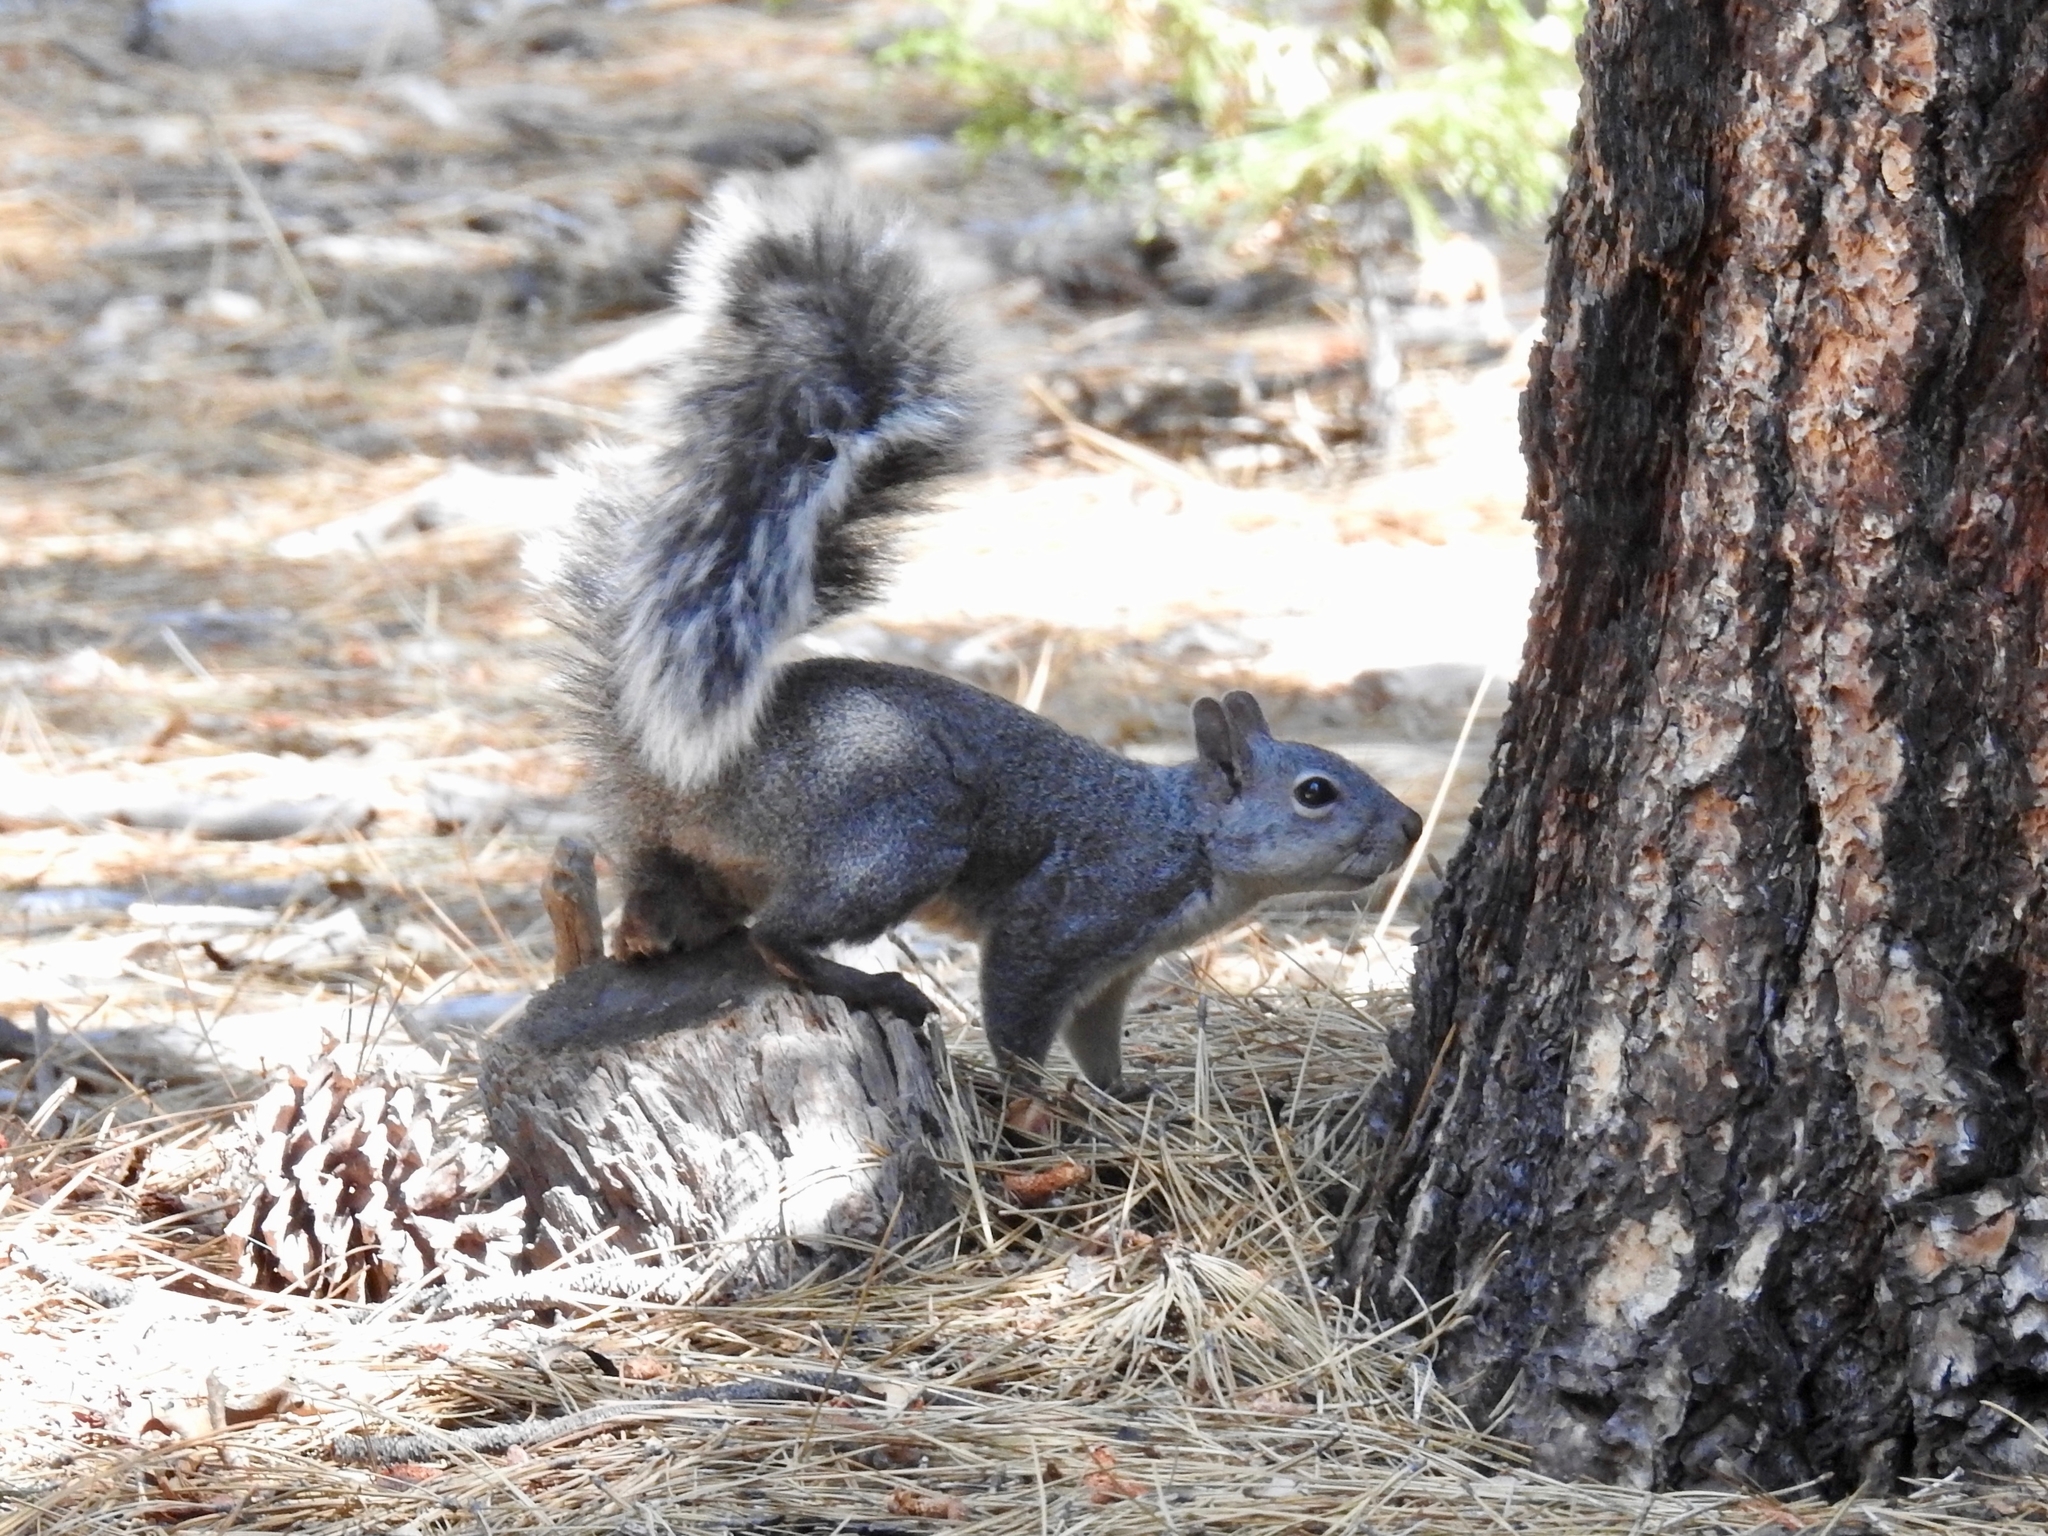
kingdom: Animalia
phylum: Chordata
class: Mammalia
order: Rodentia
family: Sciuridae
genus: Sciurus
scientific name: Sciurus griseus
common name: Western gray squirrel
